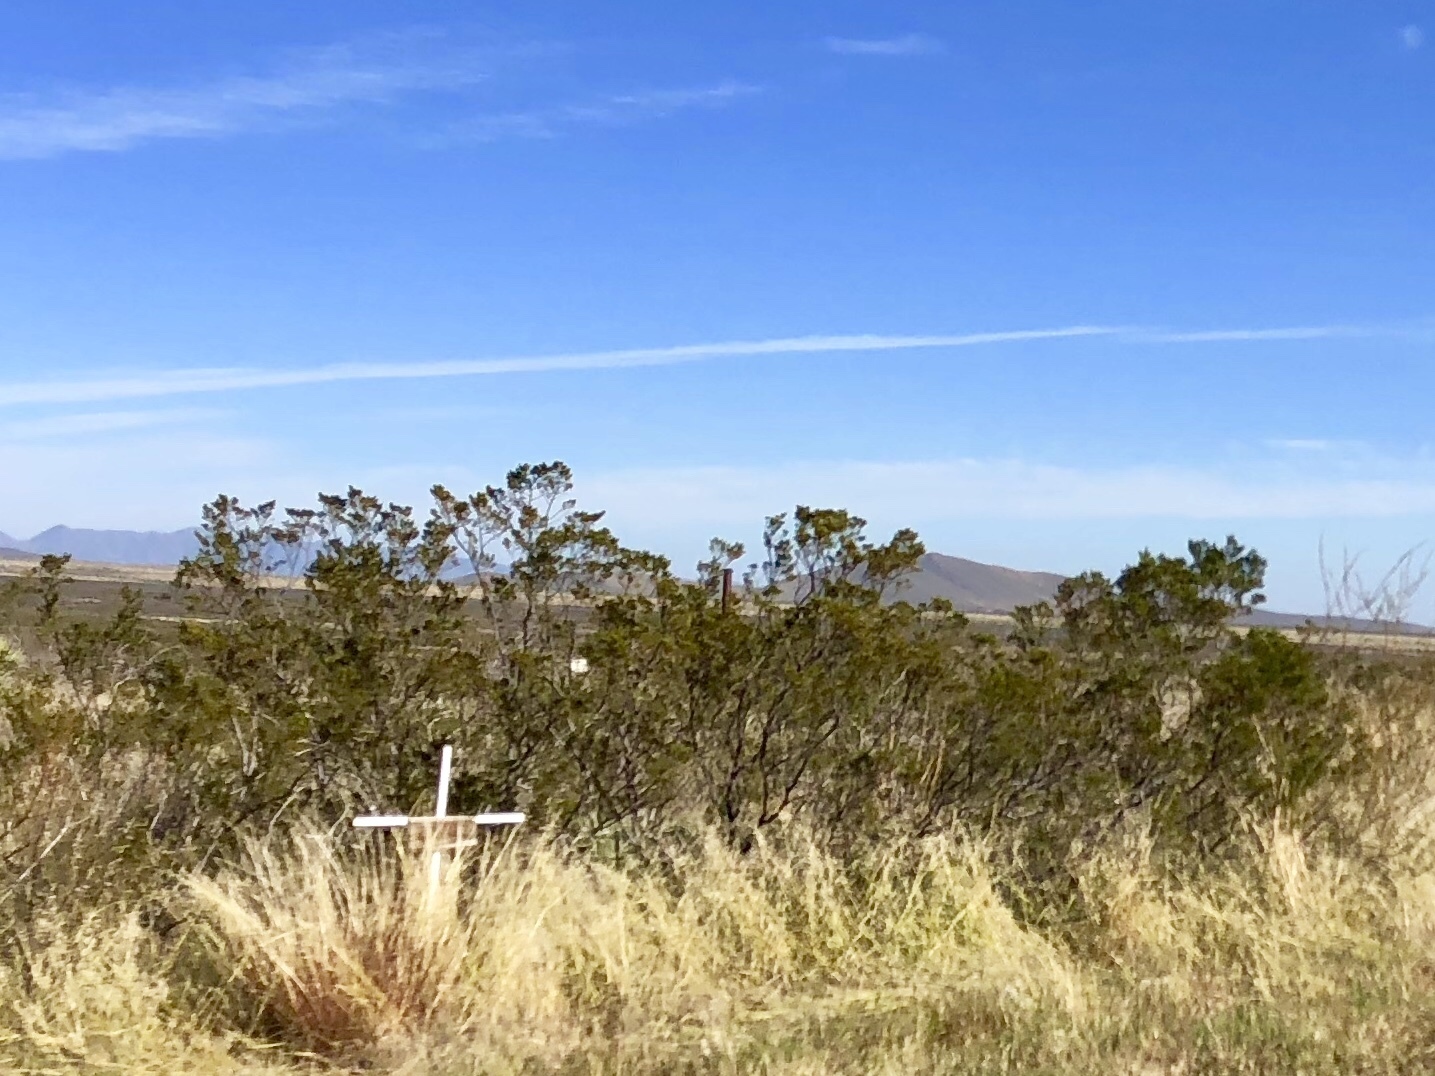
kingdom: Plantae
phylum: Tracheophyta
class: Magnoliopsida
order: Zygophyllales
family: Zygophyllaceae
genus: Larrea
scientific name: Larrea tridentata
